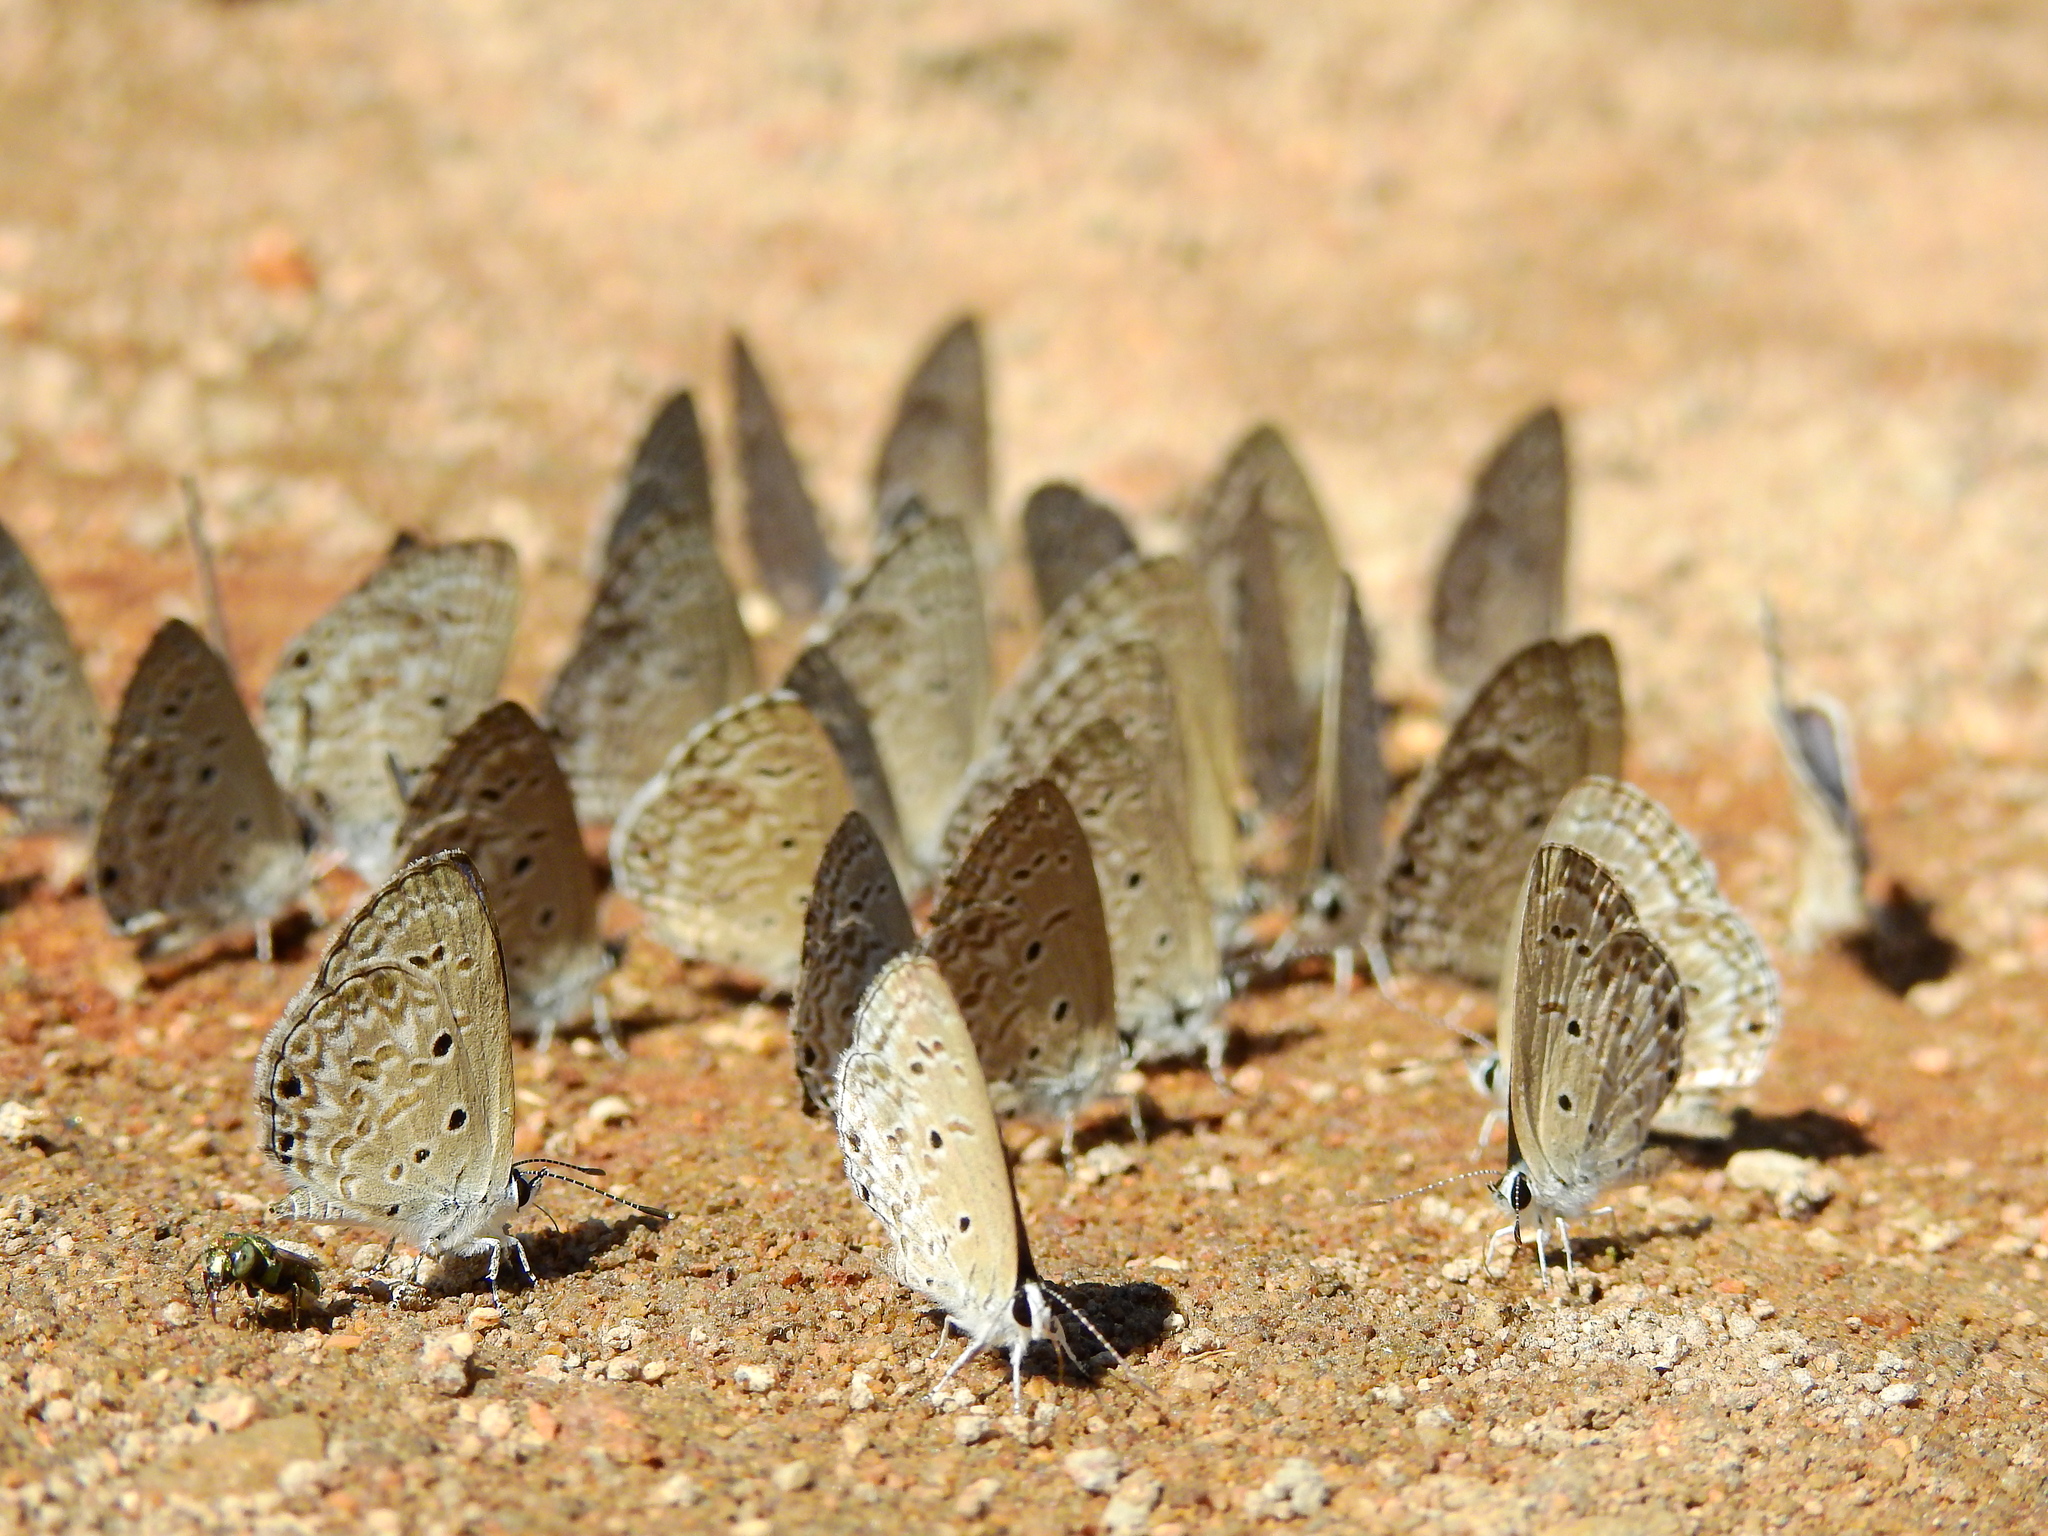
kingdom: Animalia
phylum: Arthropoda
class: Insecta
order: Lepidoptera
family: Lycaenidae
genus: Chilades
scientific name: Chilades laius
